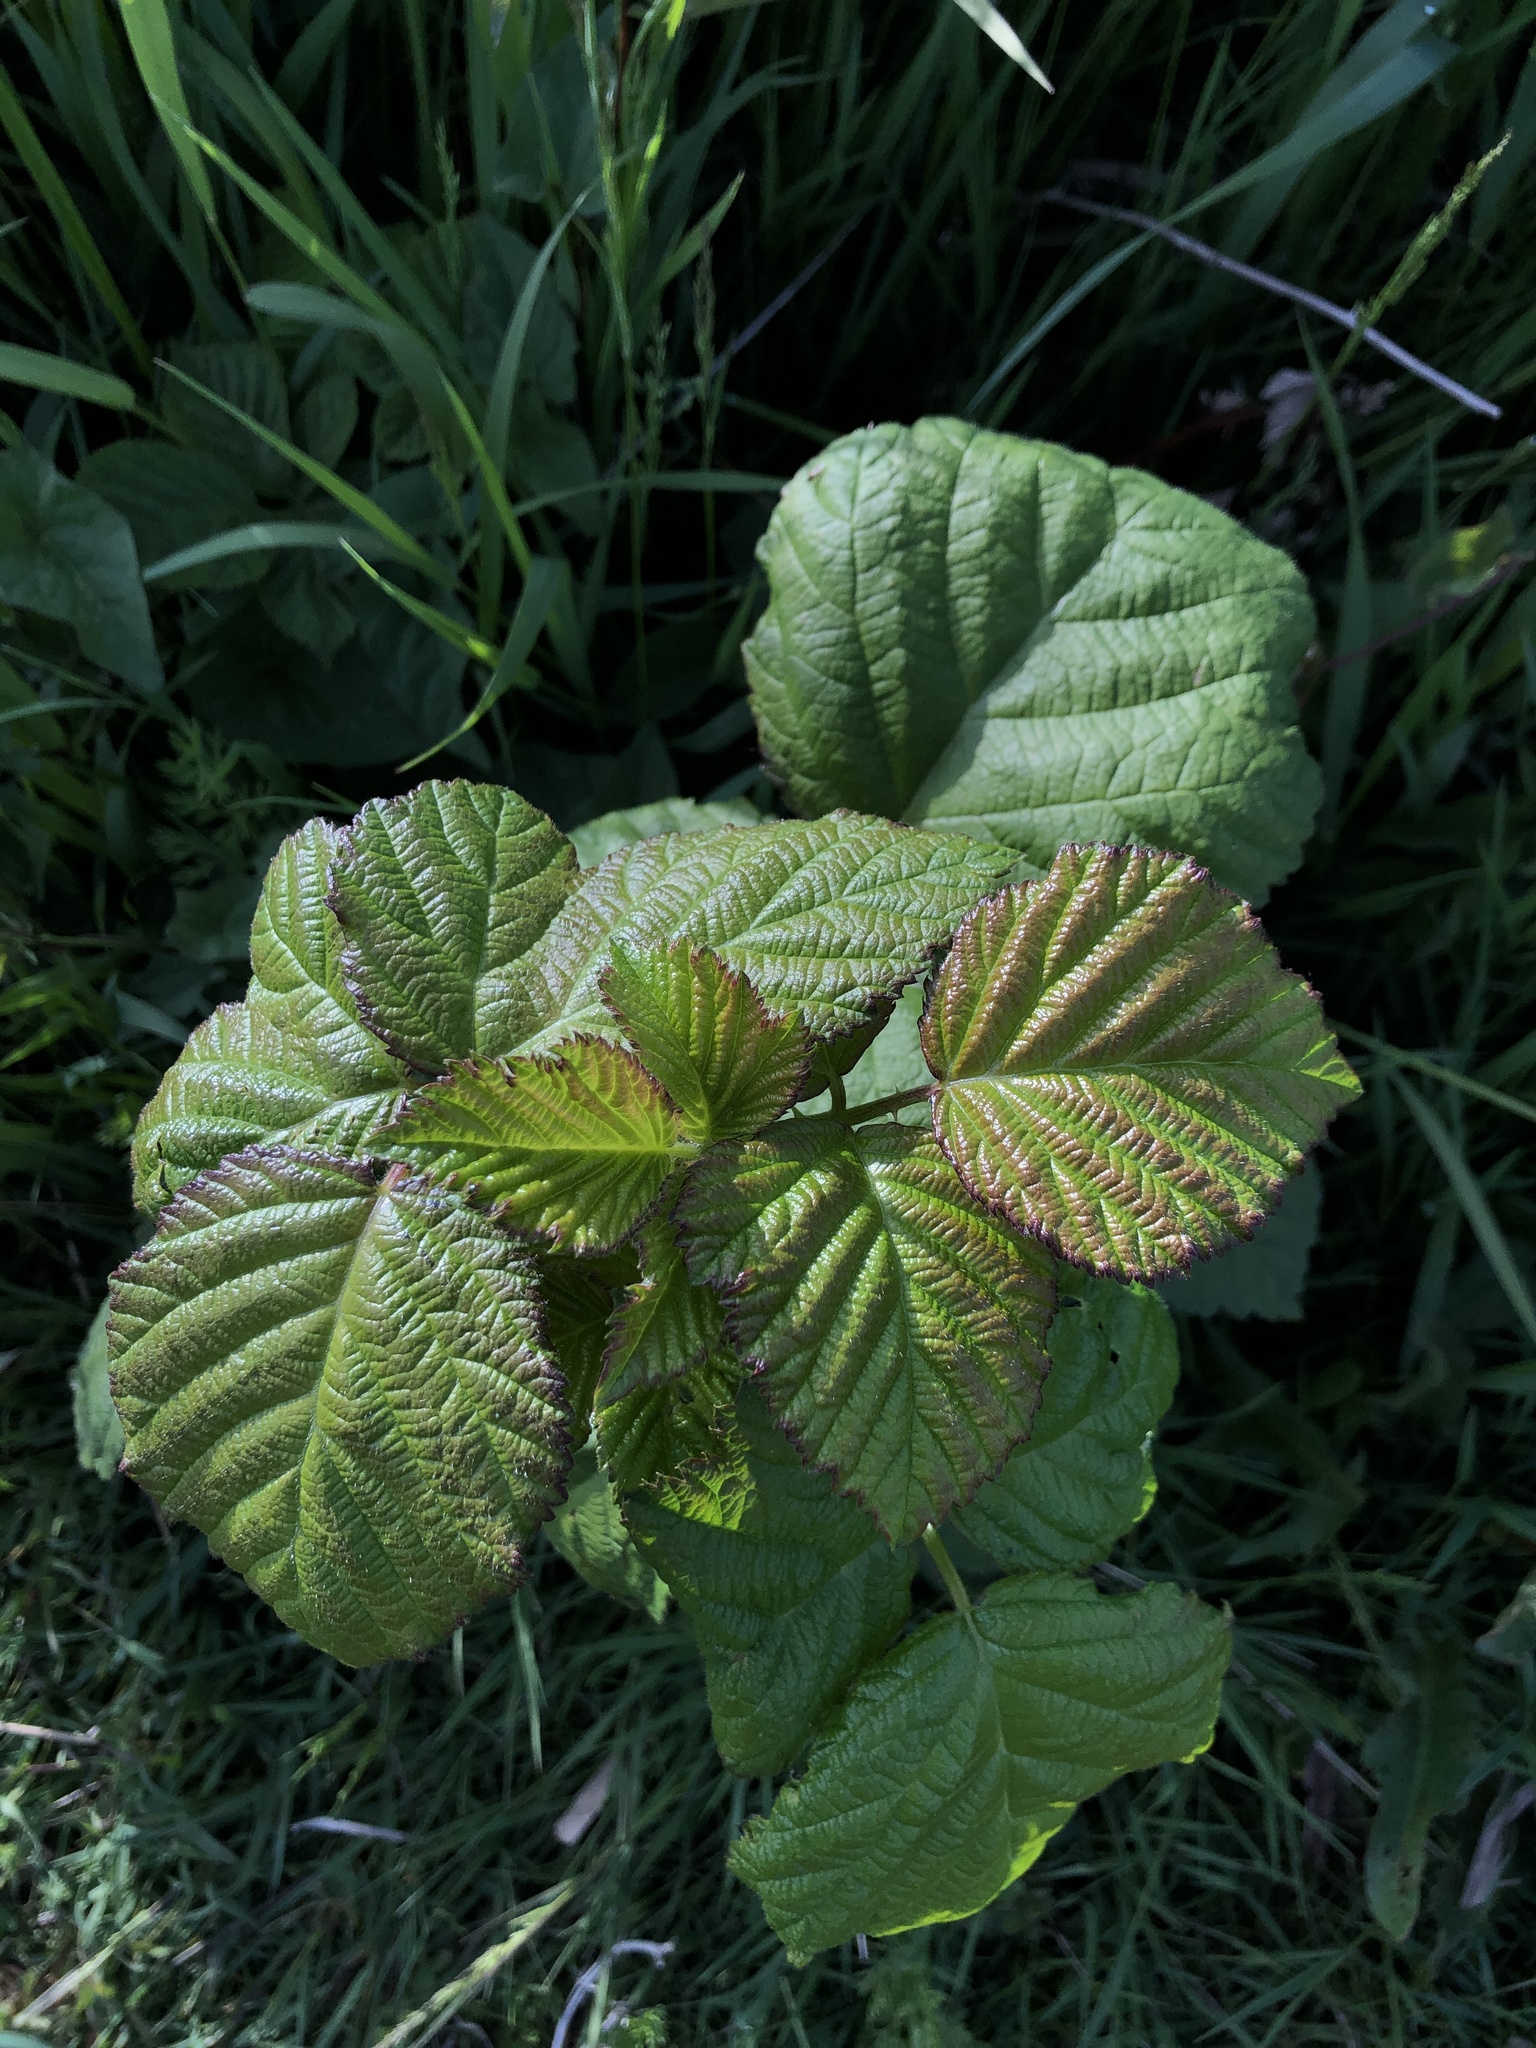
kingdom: Plantae
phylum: Tracheophyta
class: Magnoliopsida
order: Rosales
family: Rosaceae
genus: Rubus
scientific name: Rubus bifrons
